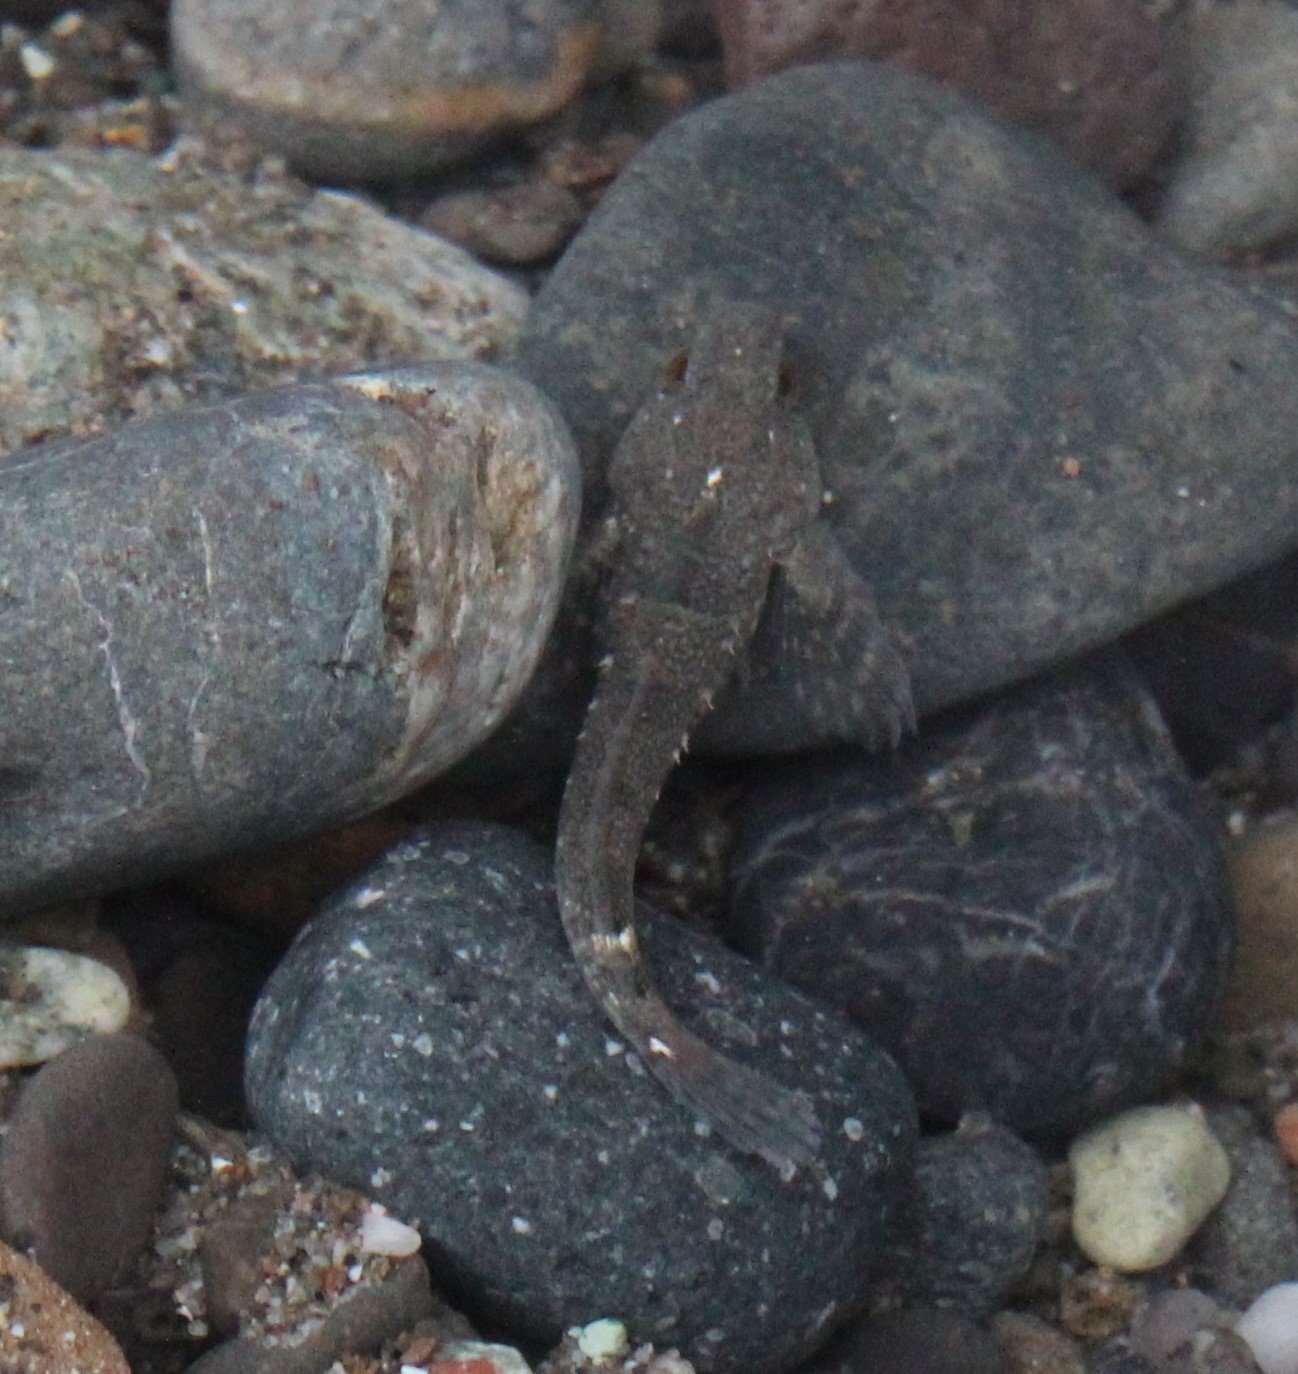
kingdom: Animalia
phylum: Chordata
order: Scorpaeniformes
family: Cottidae
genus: Oligocottus
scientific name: Oligocottus maculosus
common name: Tidepool sculpin
